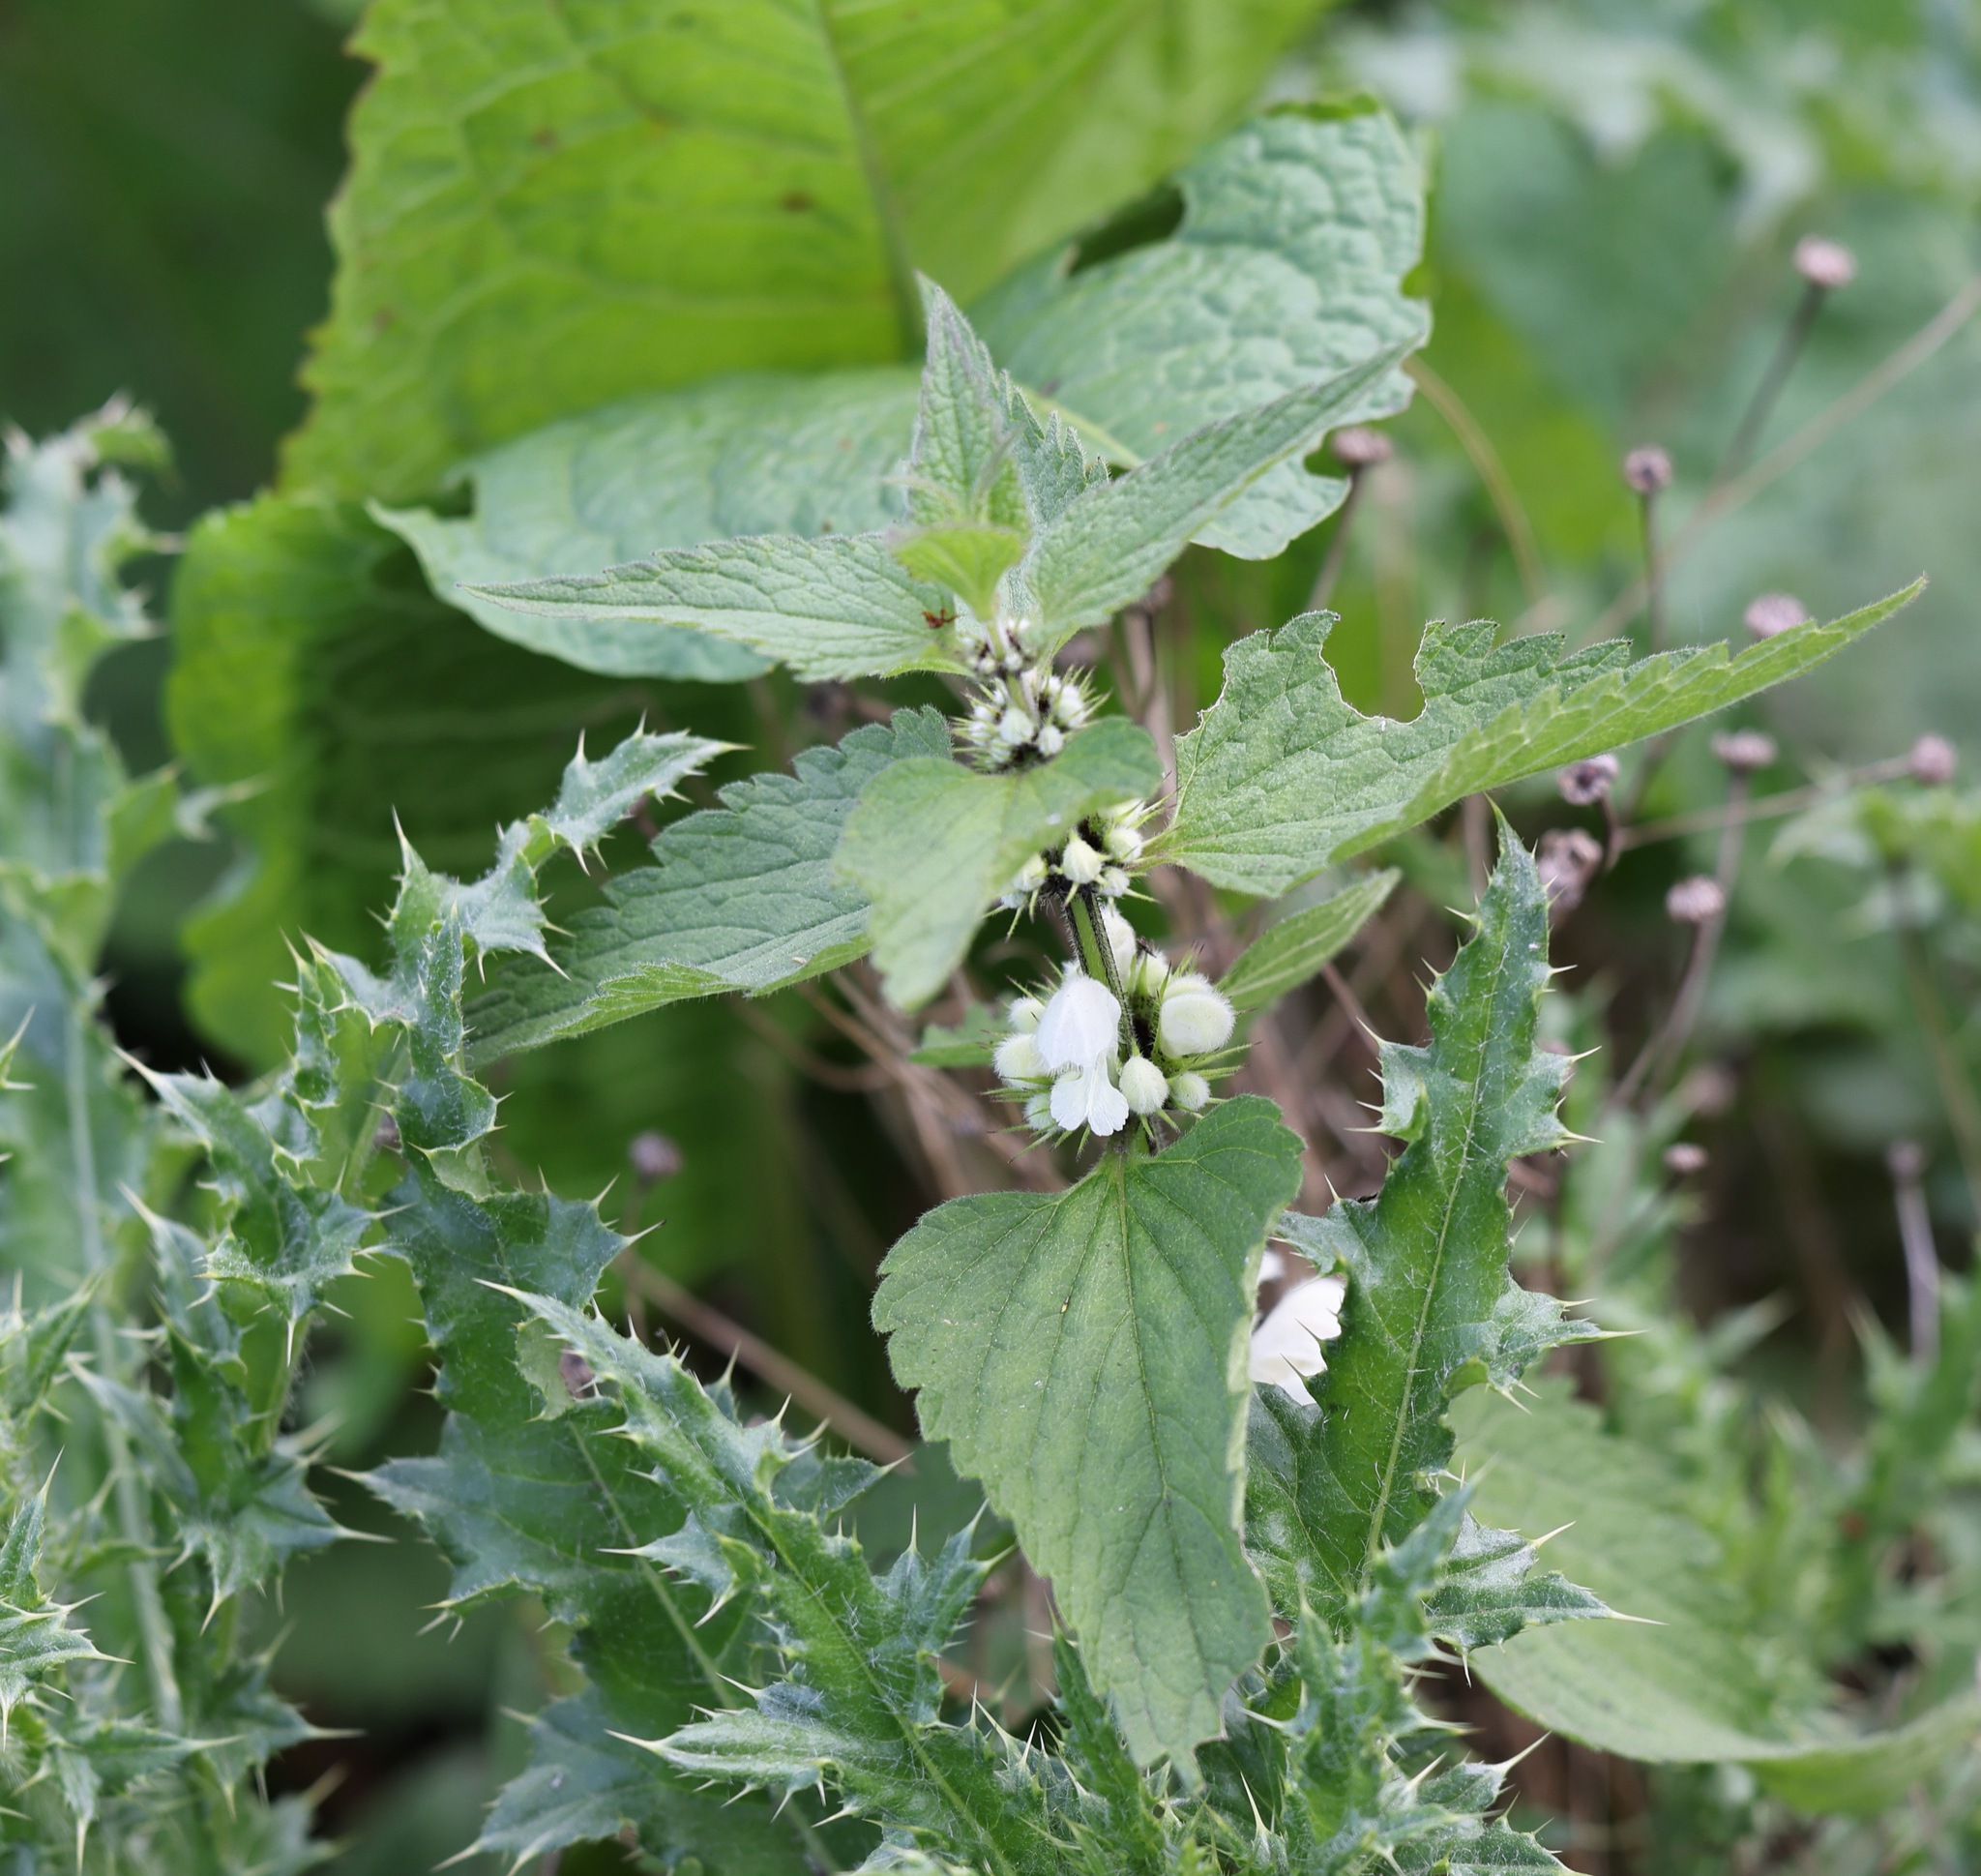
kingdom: Plantae
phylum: Tracheophyta
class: Magnoliopsida
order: Lamiales
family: Lamiaceae
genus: Lamium
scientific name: Lamium album
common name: White dead-nettle
